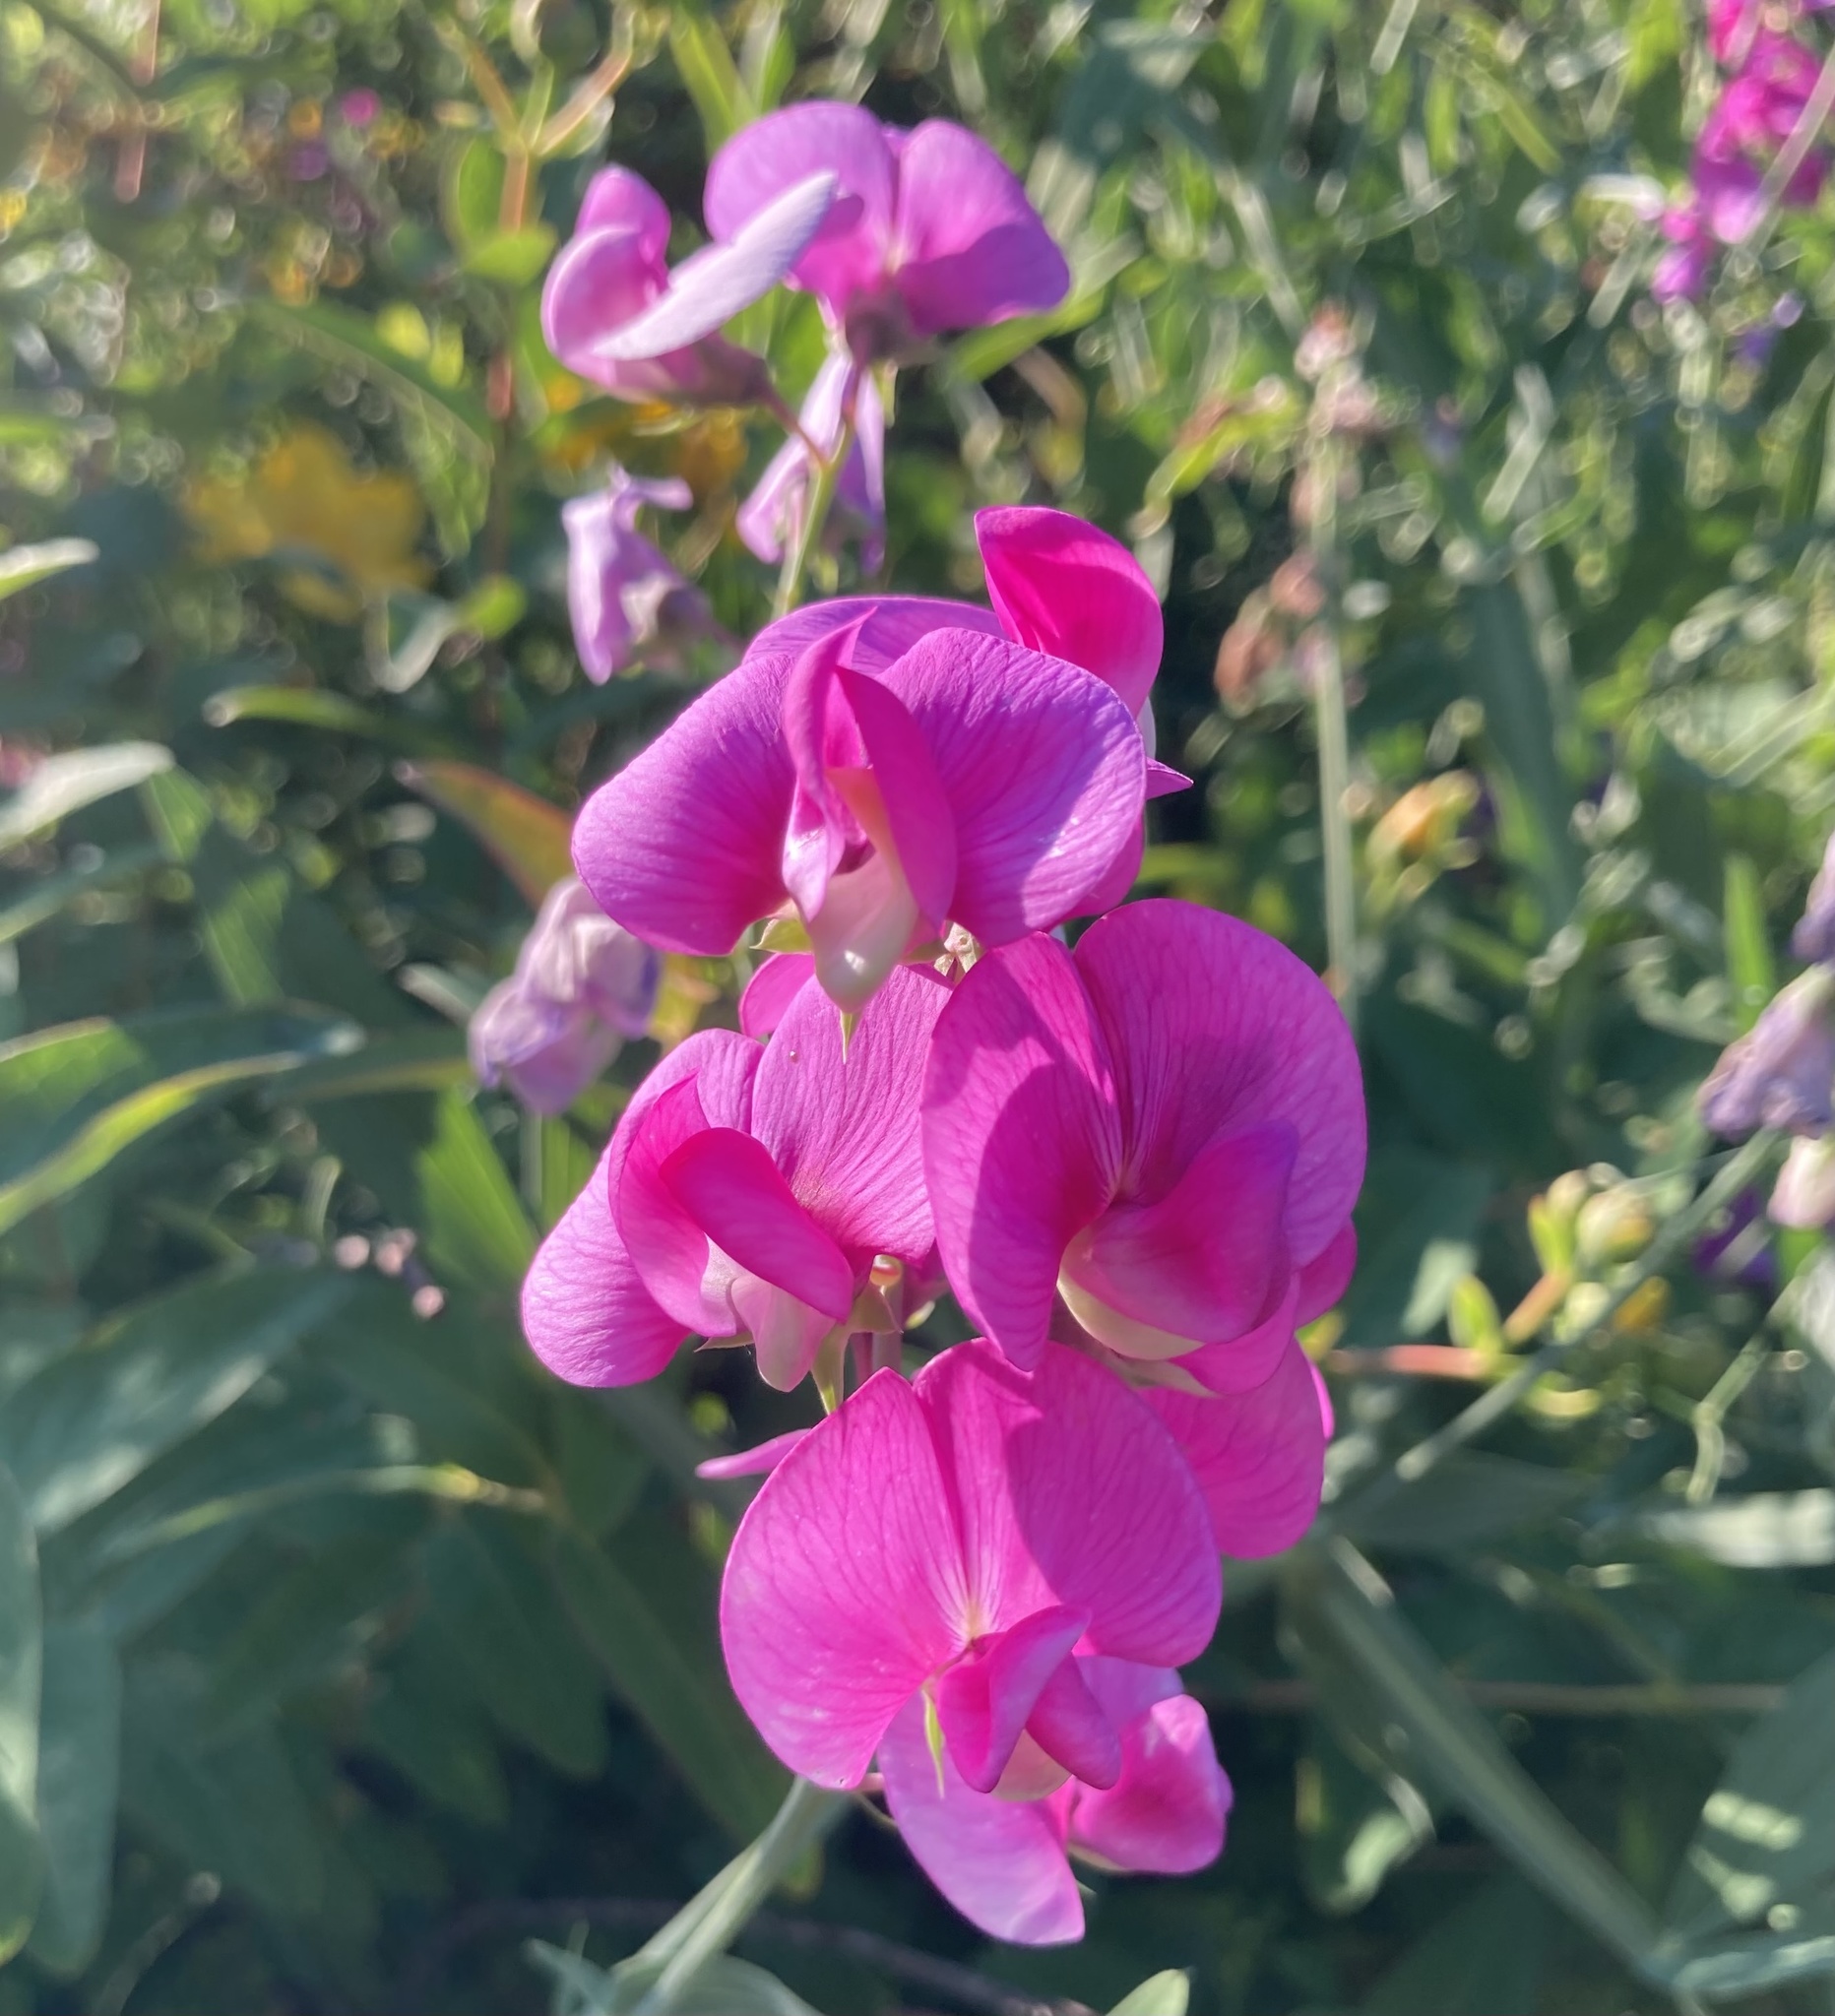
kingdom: Plantae
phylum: Tracheophyta
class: Magnoliopsida
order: Fabales
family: Fabaceae
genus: Lathyrus
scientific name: Lathyrus latifolius
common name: Perennial pea
